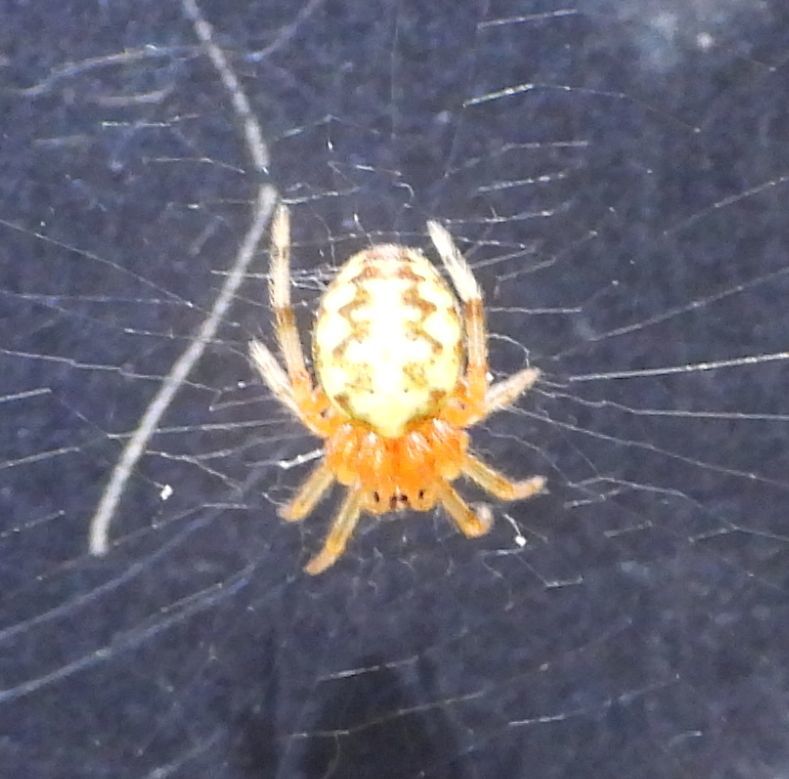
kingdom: Animalia
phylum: Arthropoda
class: Arachnida
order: Araneae
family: Araneidae
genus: Araneus
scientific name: Araneus marmoreus
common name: Marbled orbweaver
